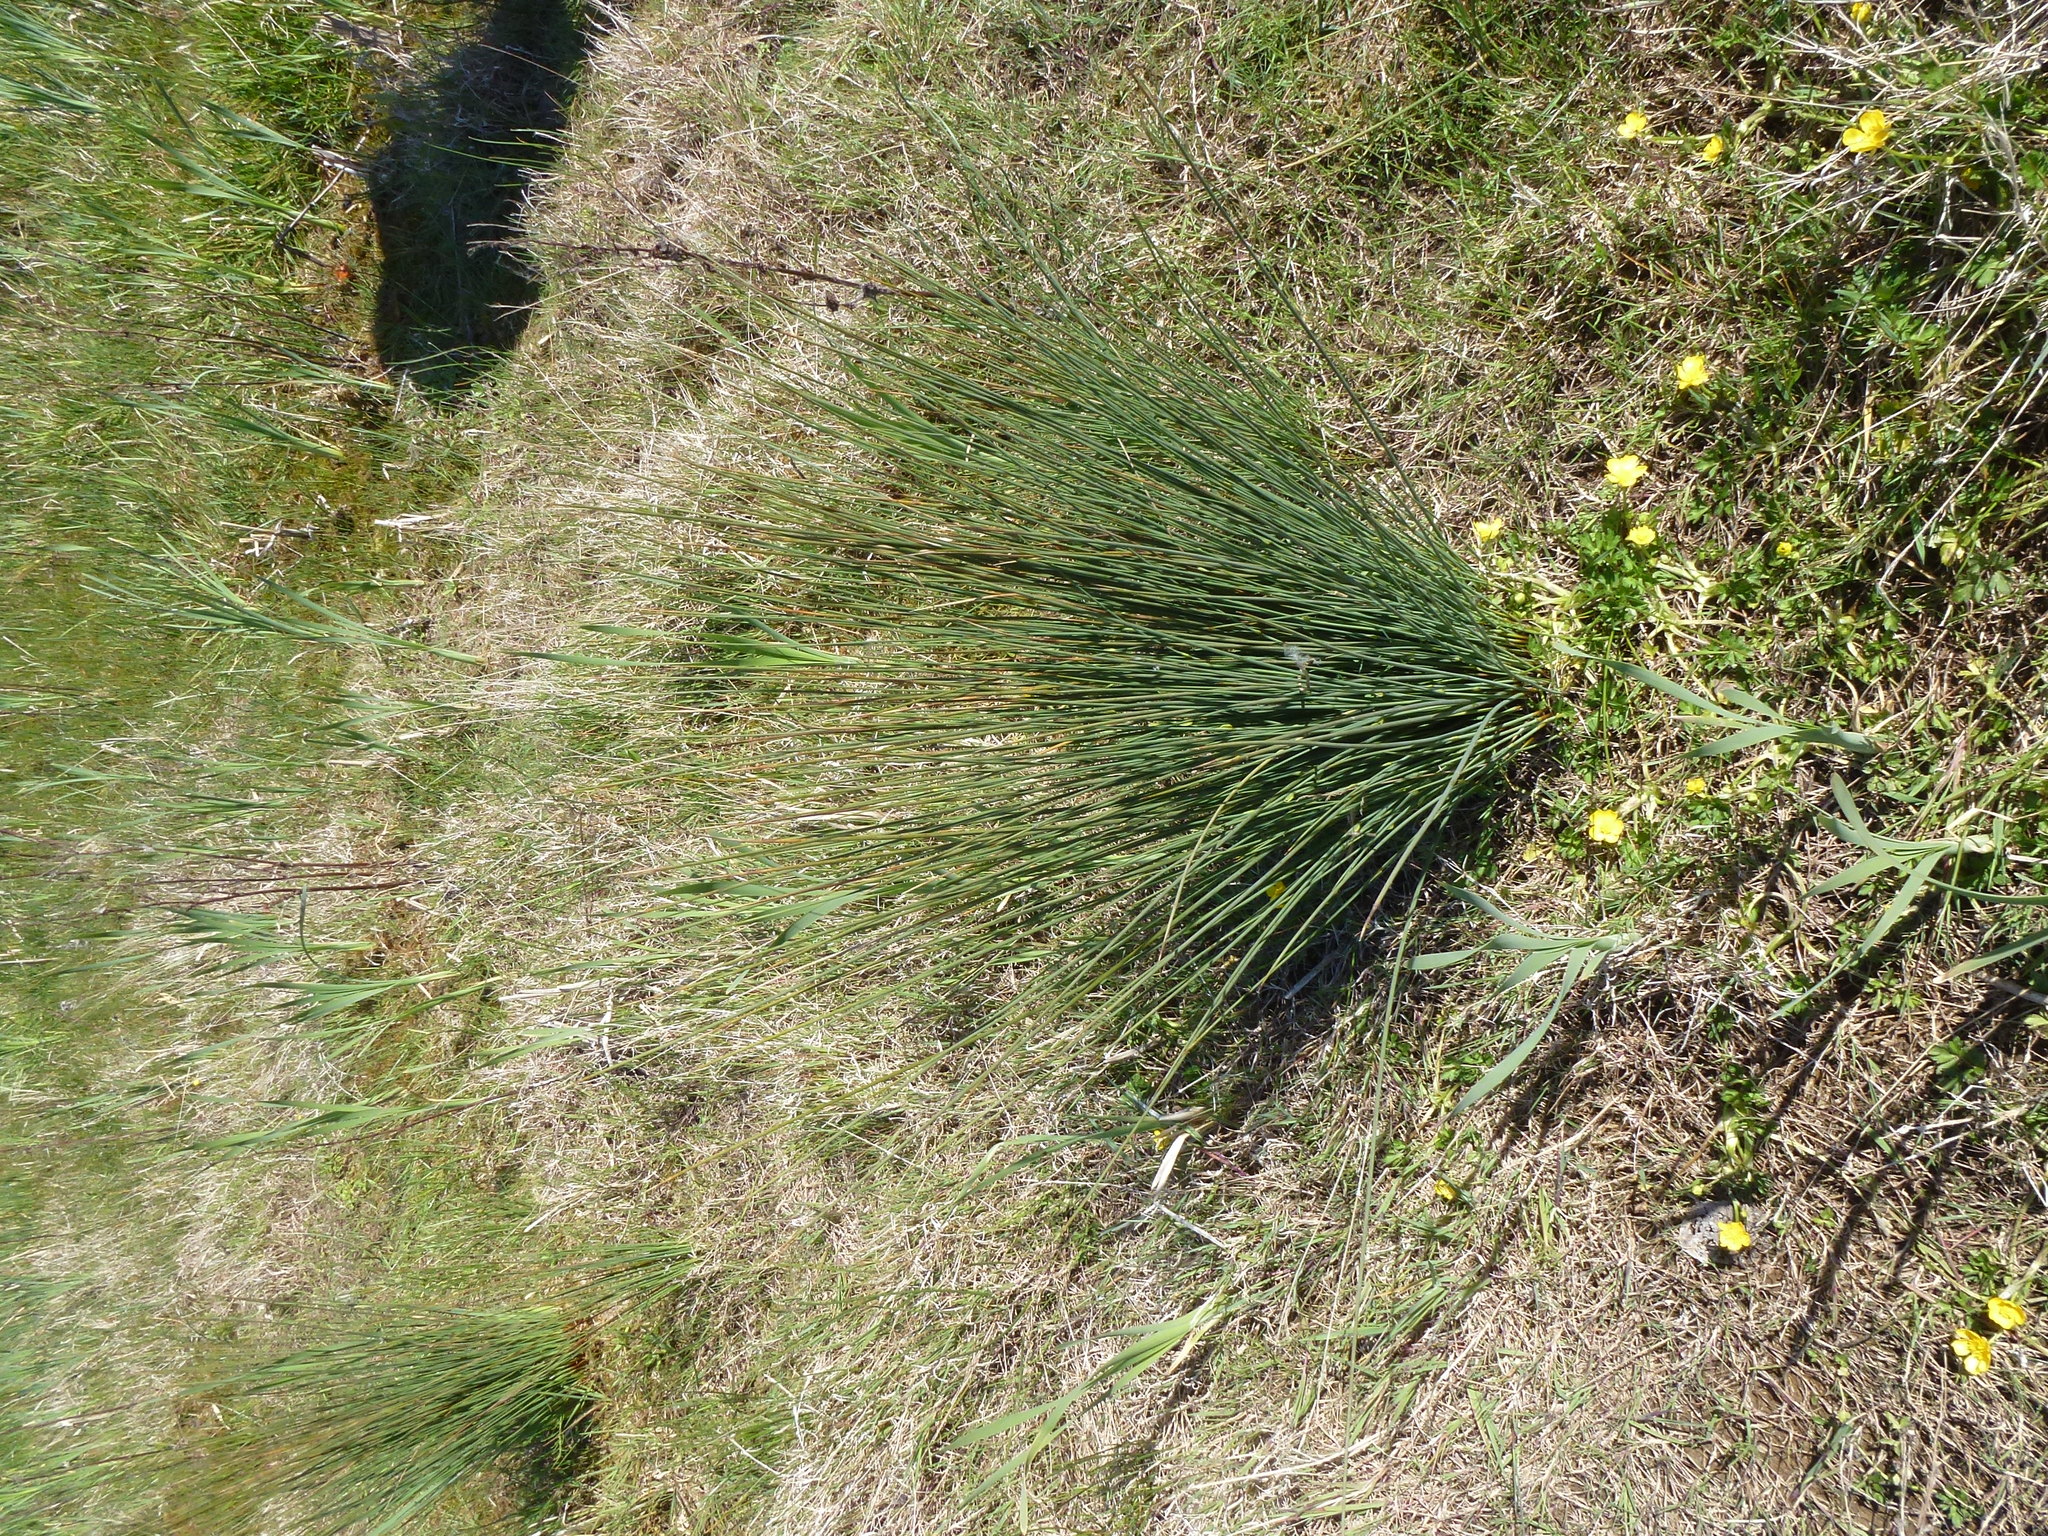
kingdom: Plantae
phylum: Tracheophyta
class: Liliopsida
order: Poales
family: Juncaceae
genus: Juncus
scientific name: Juncus inflexus
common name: Hard rush
